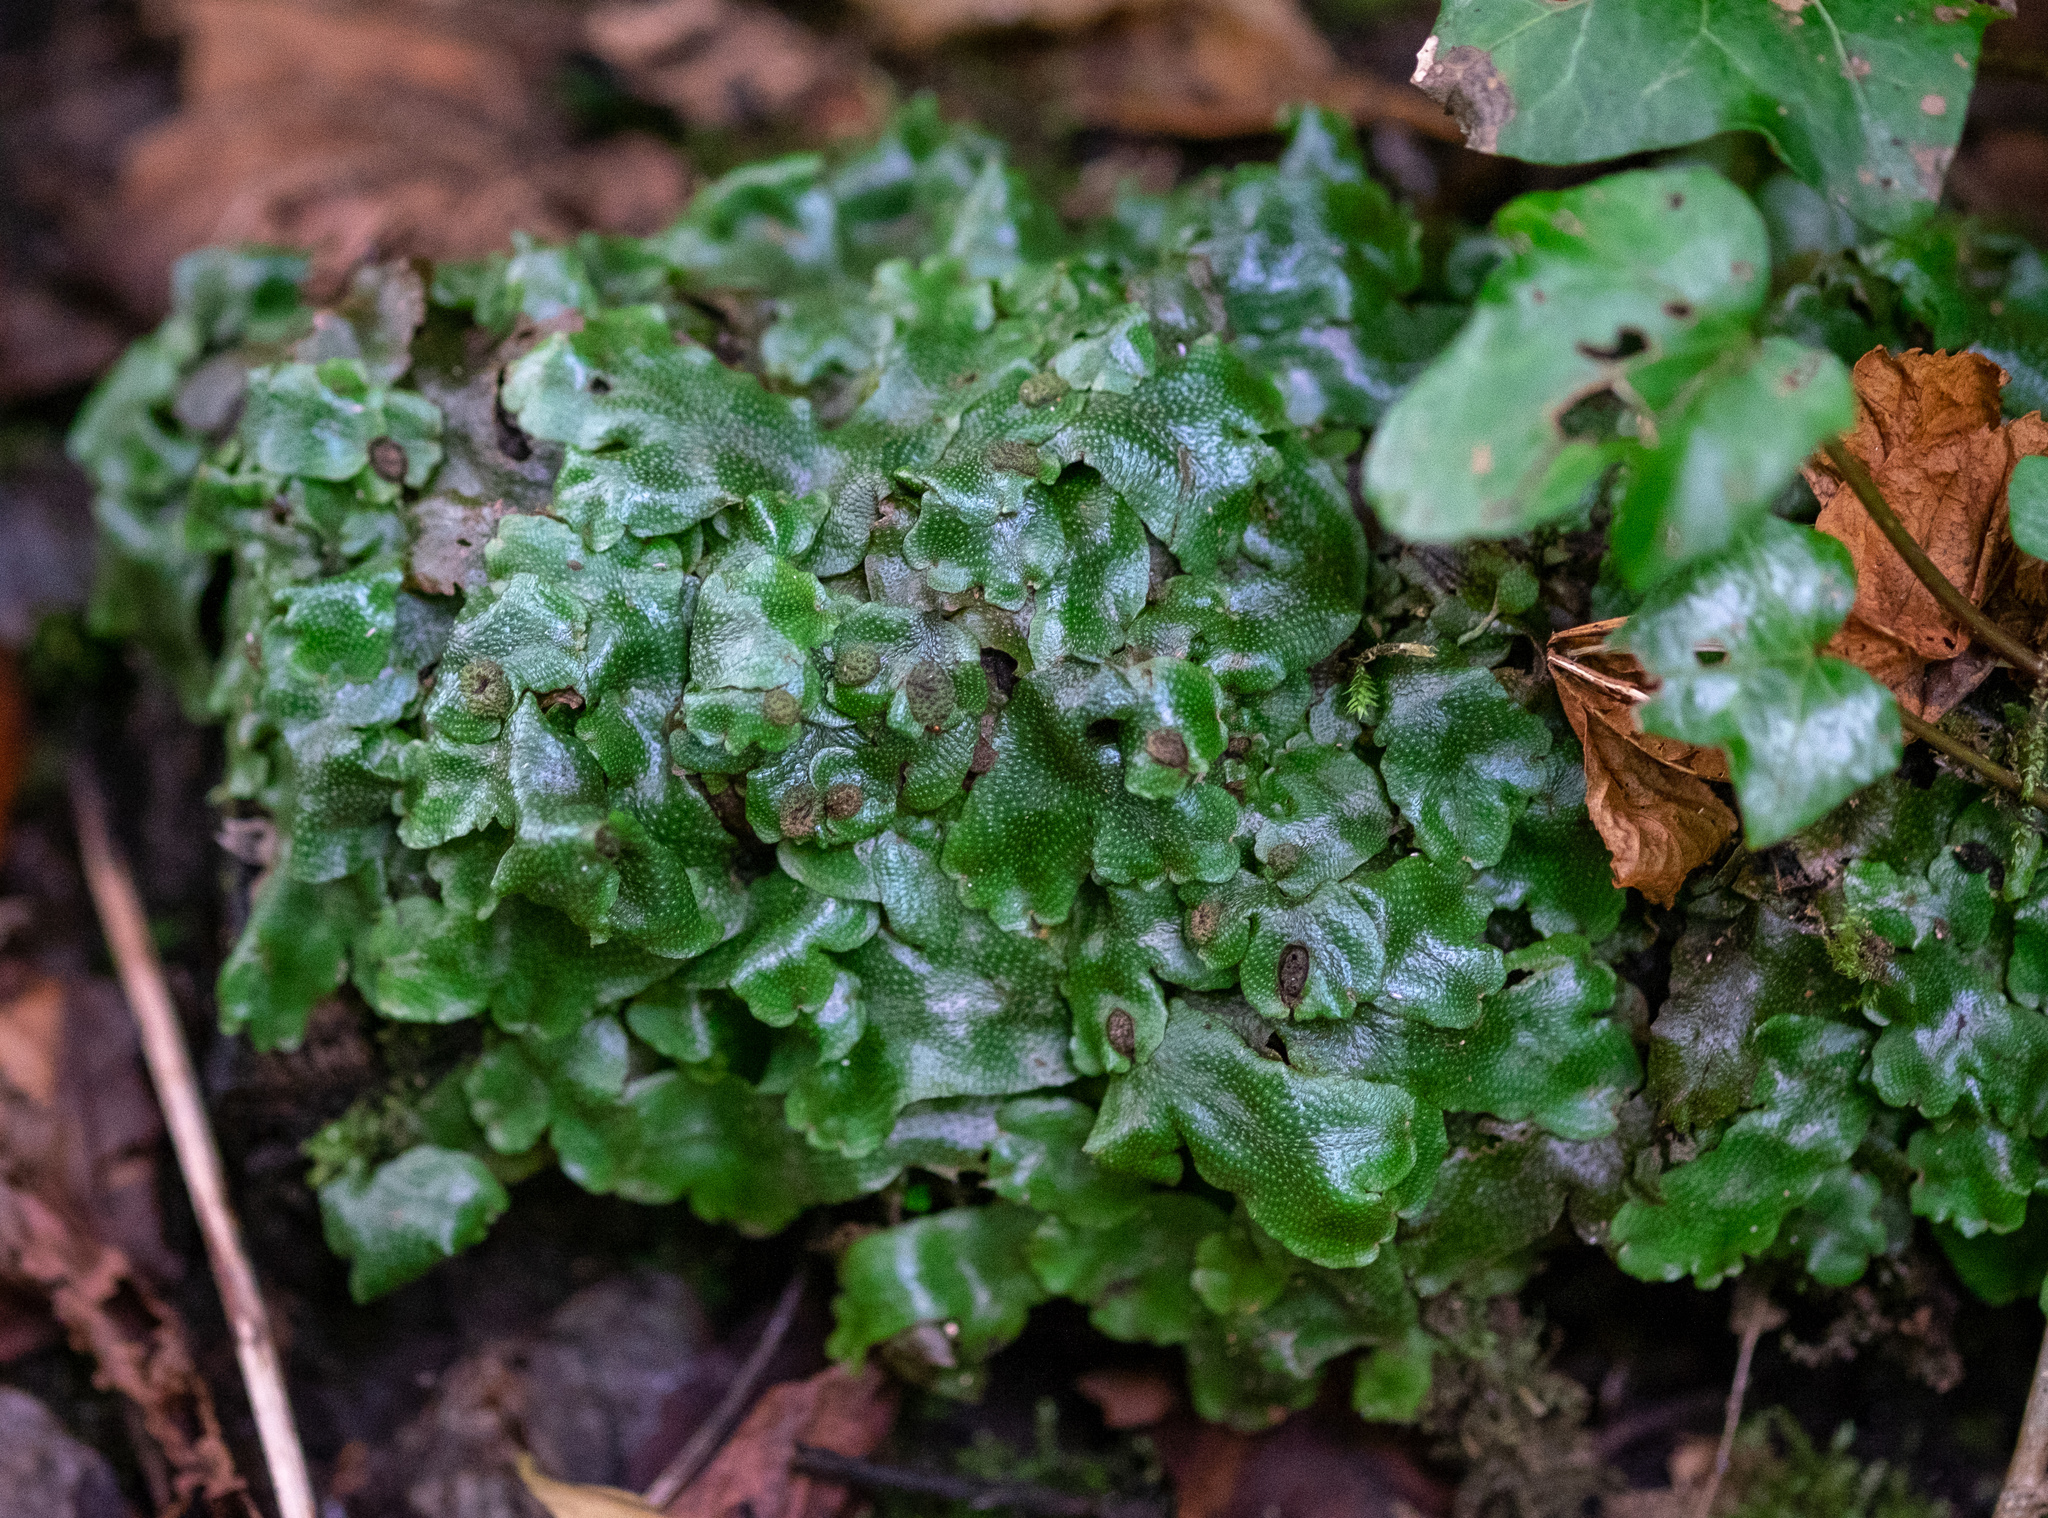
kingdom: Plantae
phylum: Marchantiophyta
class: Marchantiopsida
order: Marchantiales
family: Conocephalaceae
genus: Conocephalum
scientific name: Conocephalum conicum
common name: Great scented liverwort
